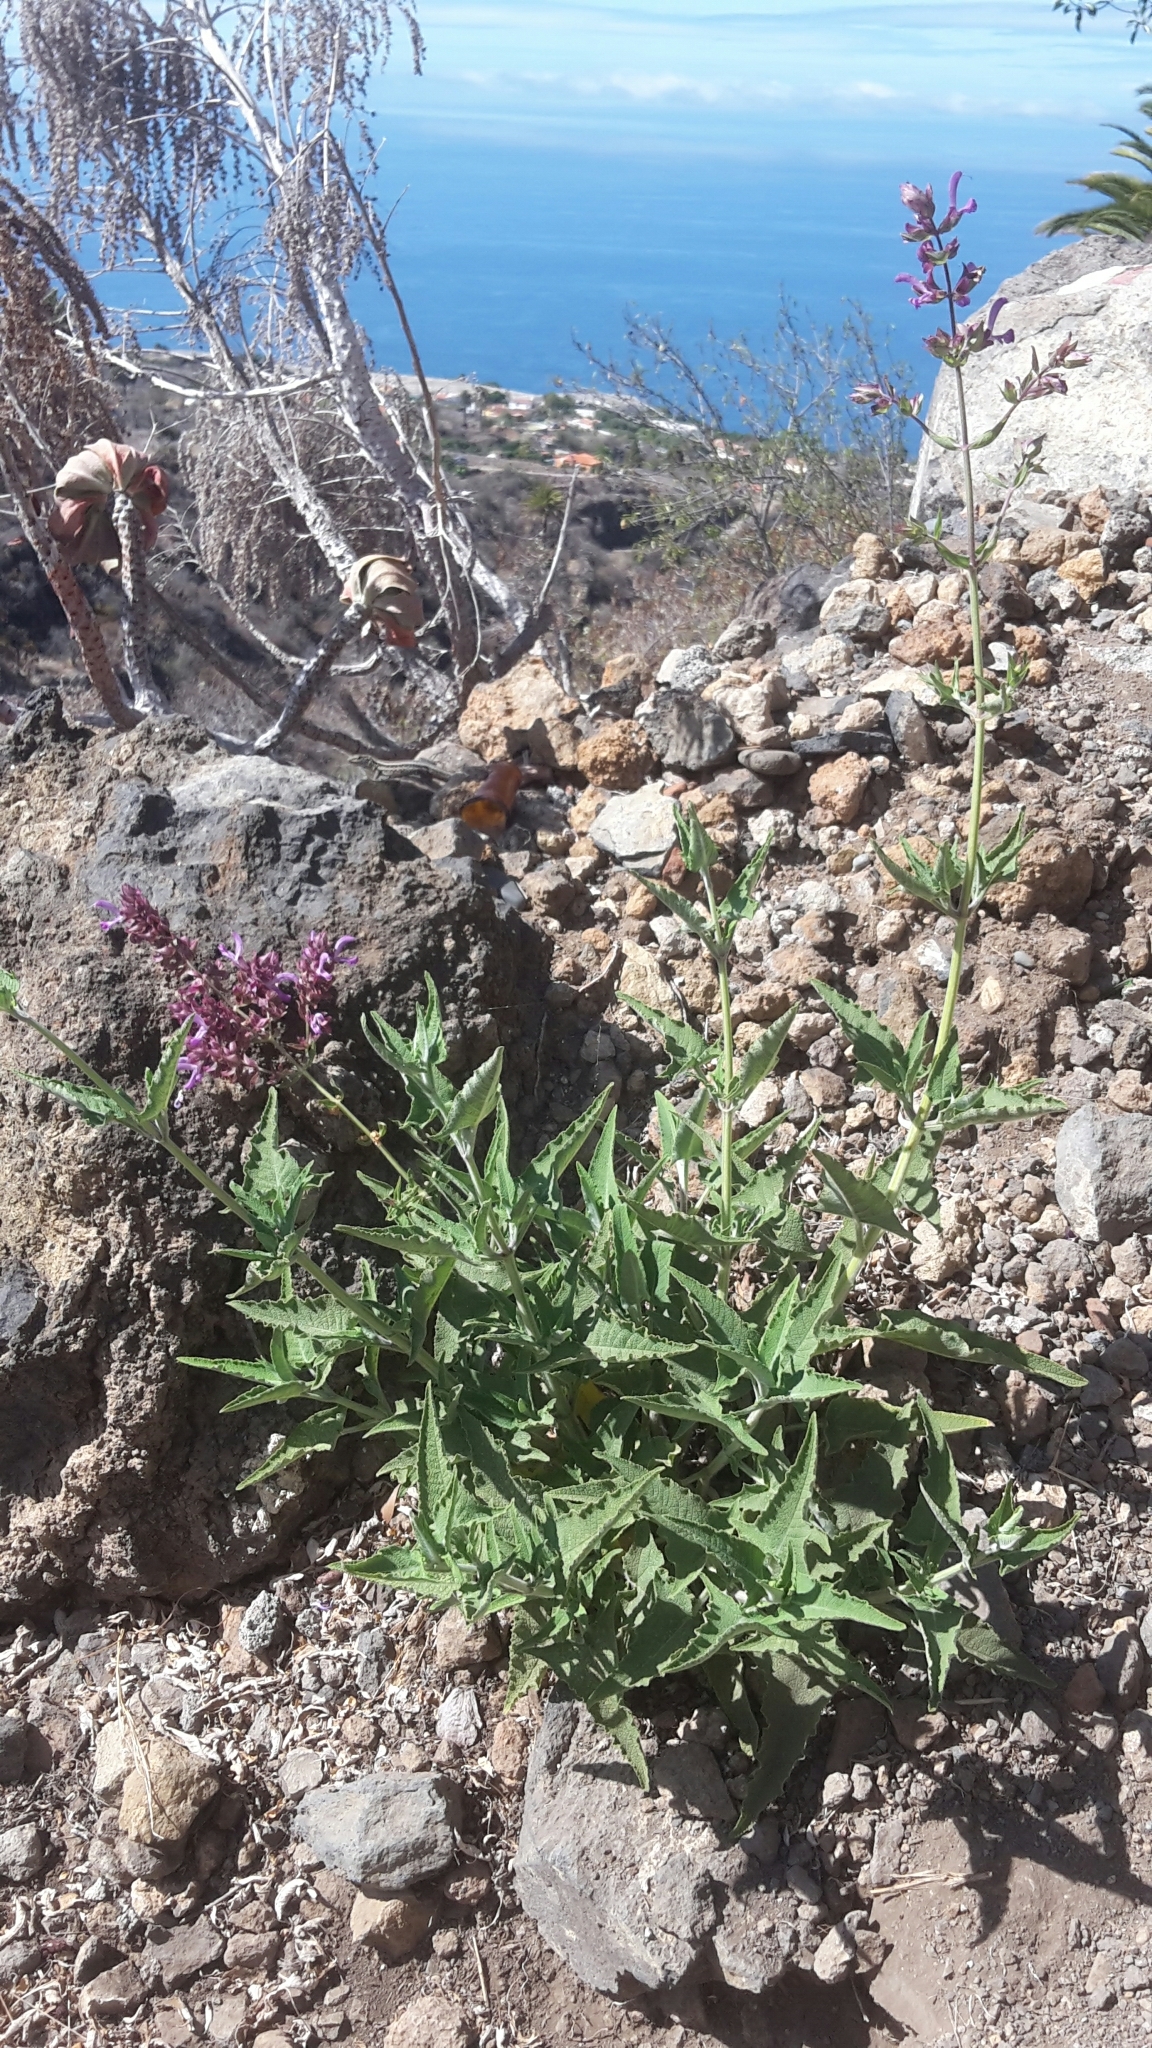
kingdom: Plantae
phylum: Tracheophyta
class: Magnoliopsida
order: Lamiales
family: Lamiaceae
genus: Salvia
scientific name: Salvia canariensis
